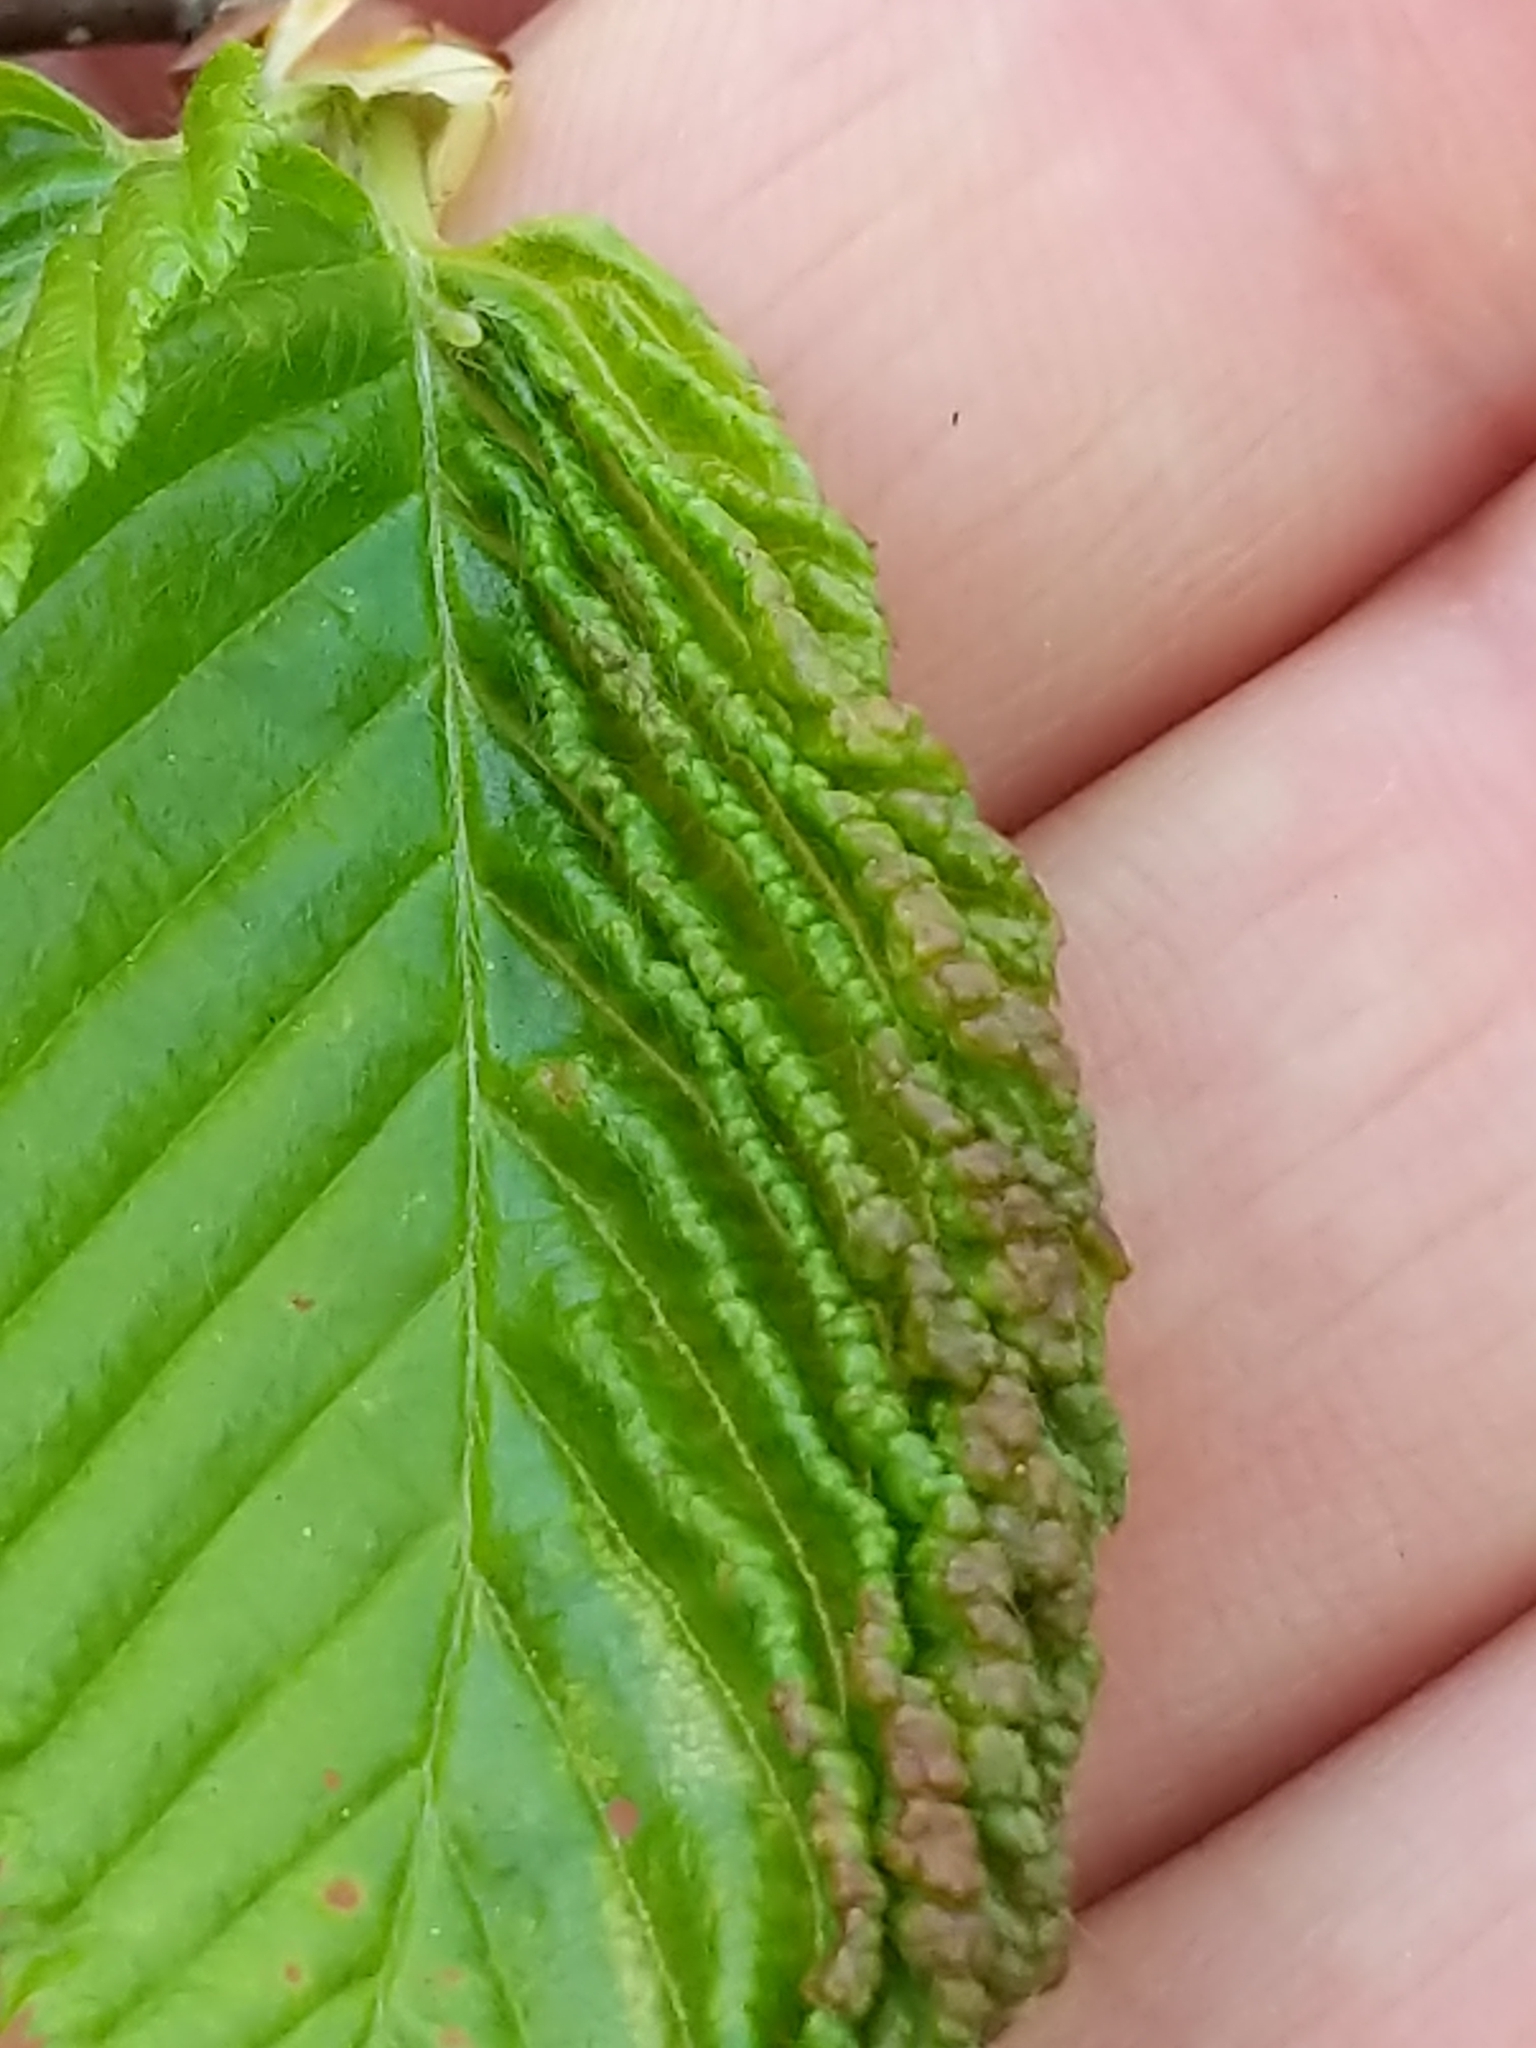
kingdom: Animalia
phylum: Arthropoda
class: Insecta
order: Hemiptera
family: Aphididae
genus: Hamamelistes
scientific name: Hamamelistes spinosus
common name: Witch hazel gall aphid
